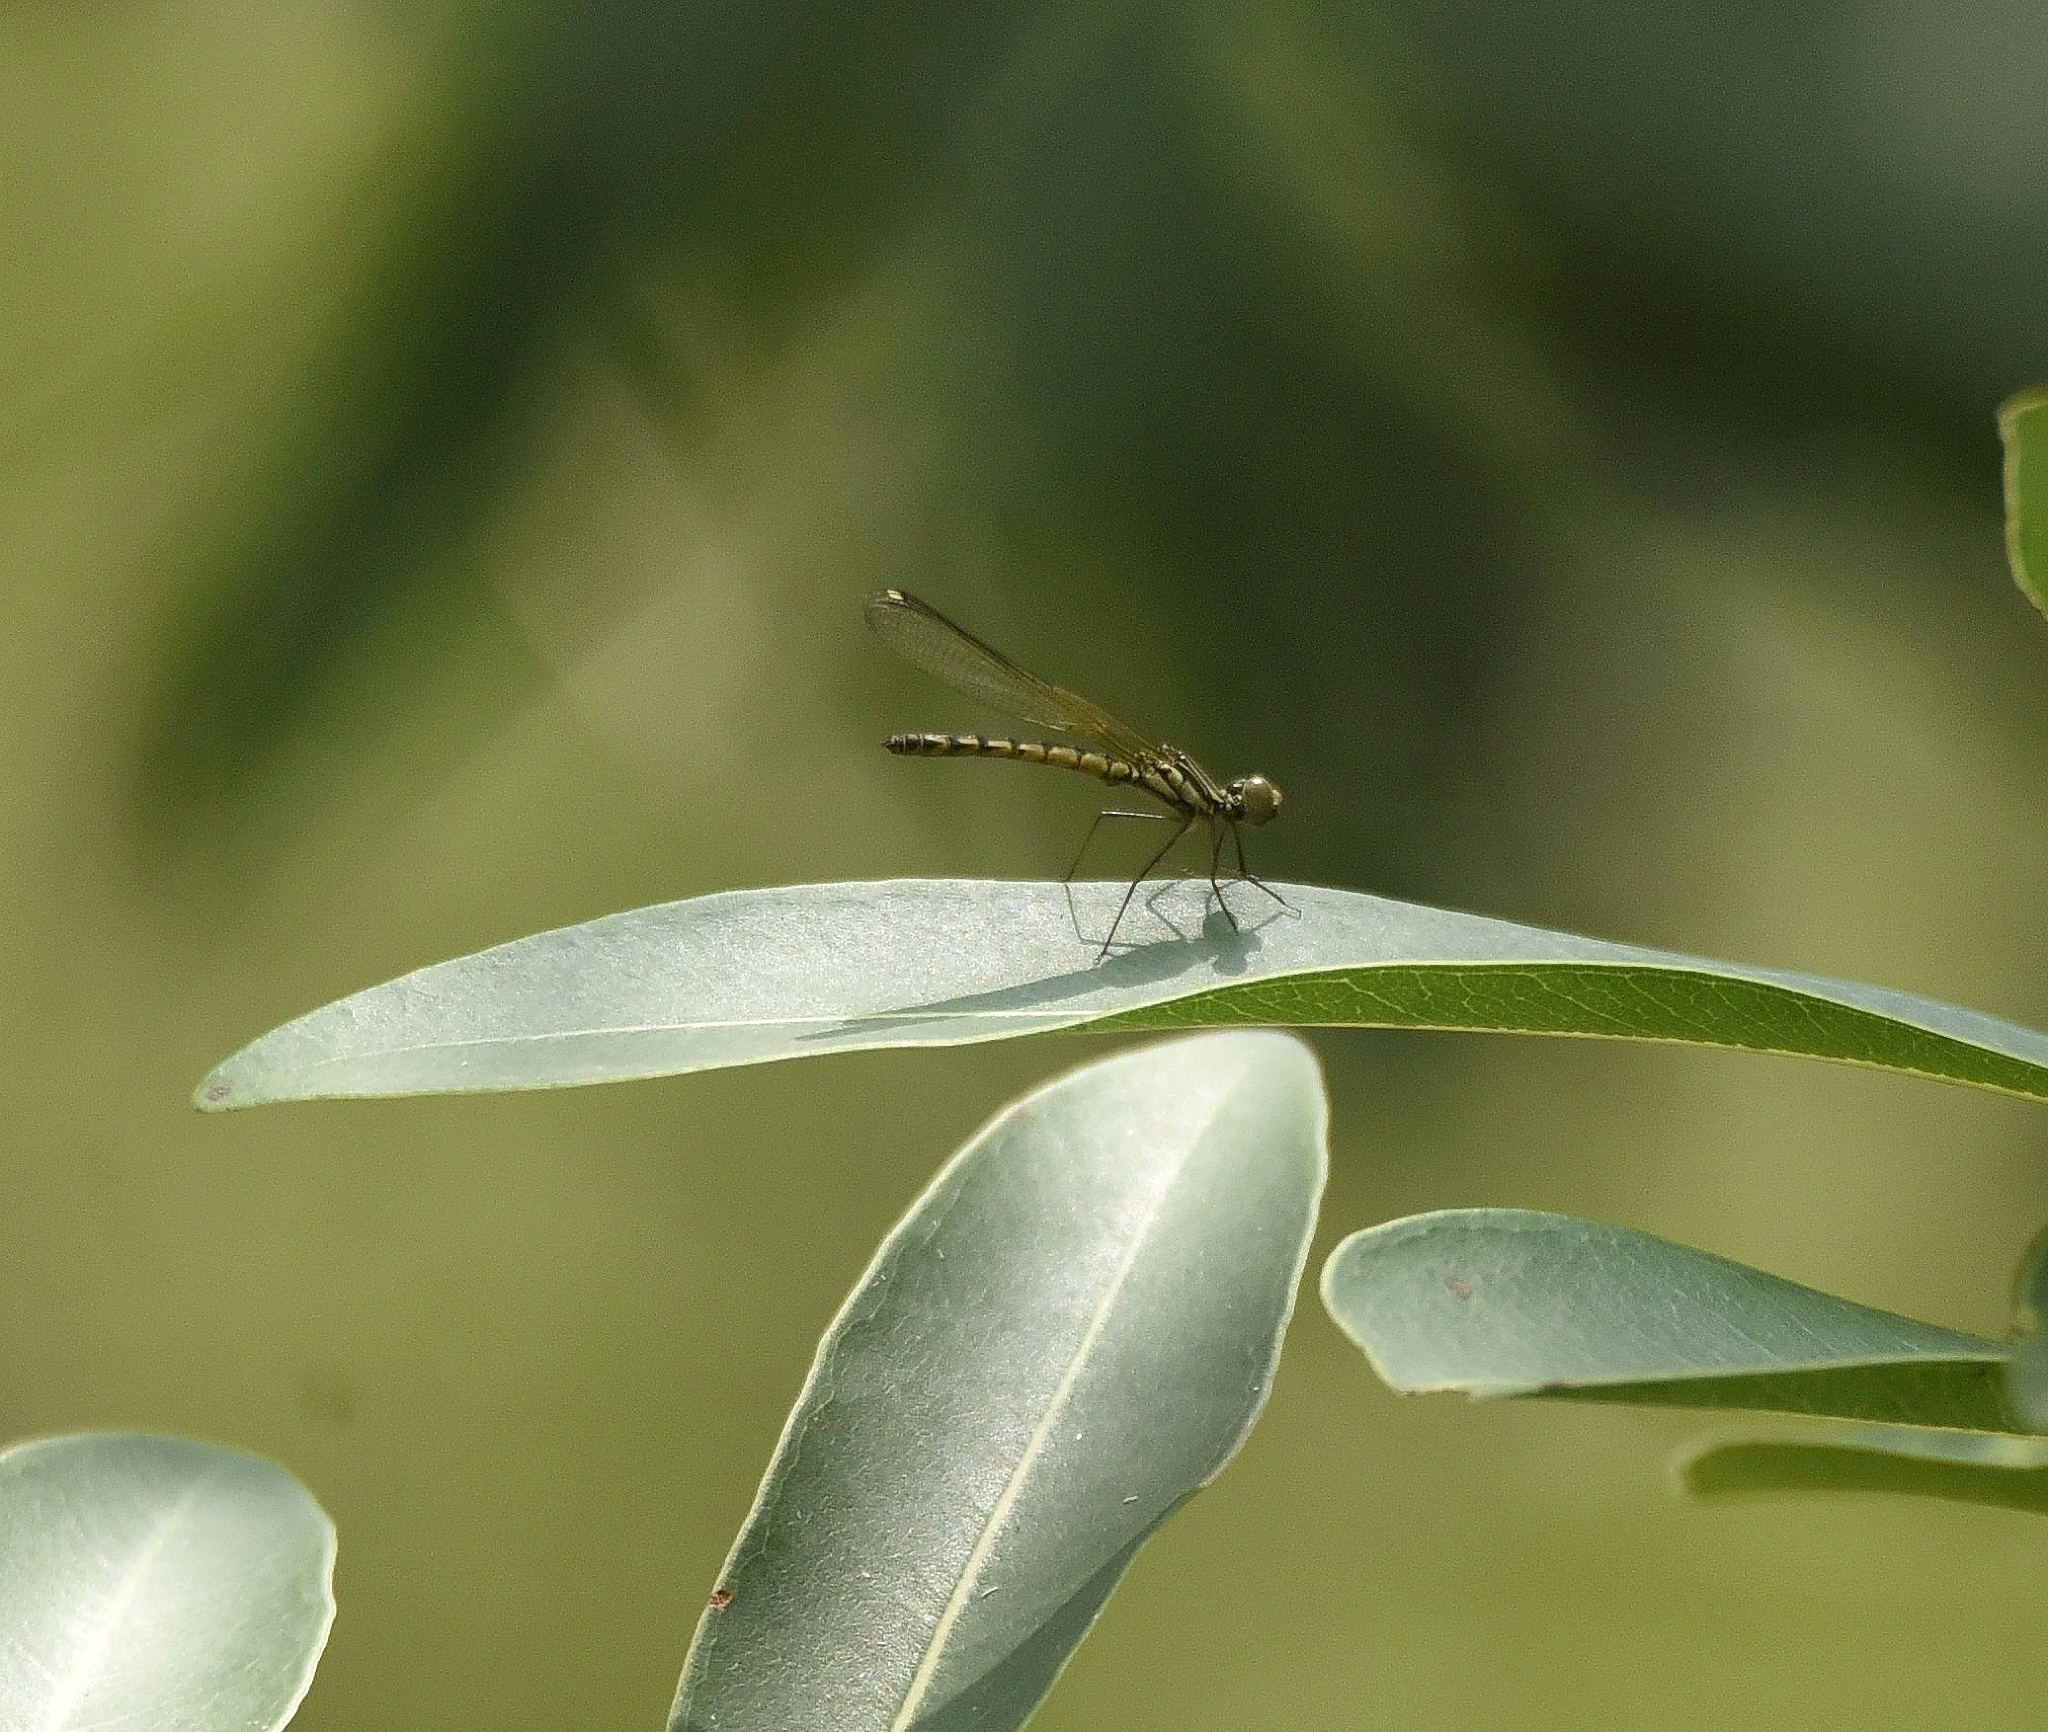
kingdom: Animalia
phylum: Arthropoda
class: Insecta
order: Odonata
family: Chlorocyphidae
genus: Libellago
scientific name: Libellago indica
